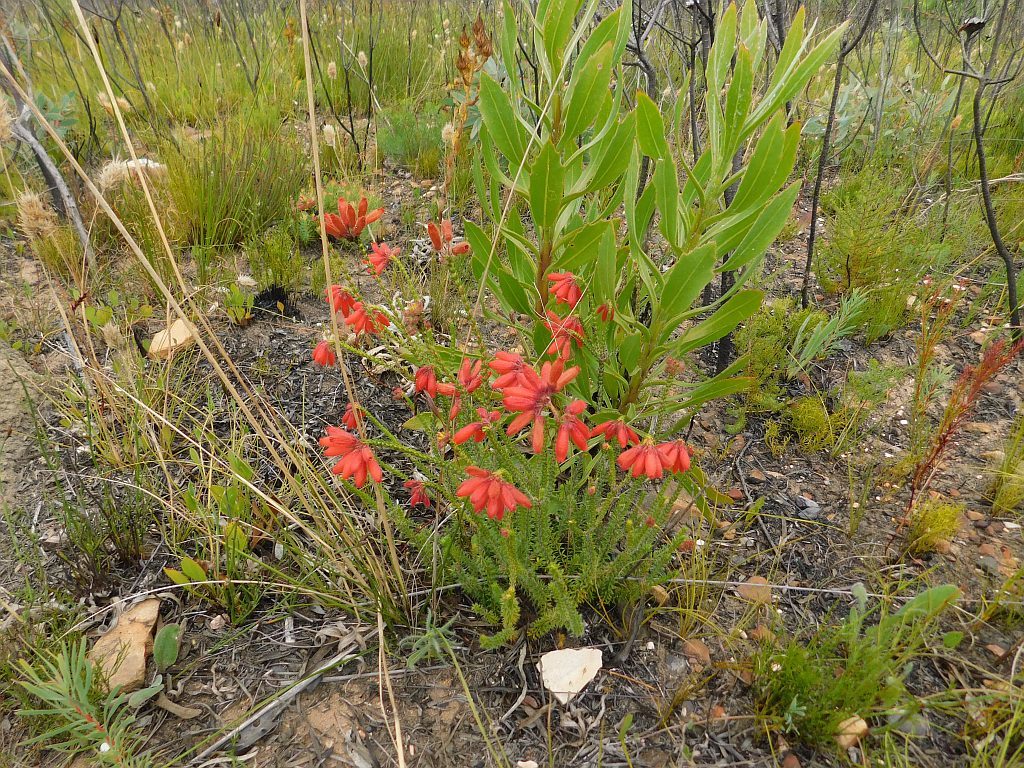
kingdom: Plantae
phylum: Tracheophyta
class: Magnoliopsida
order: Ericales
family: Ericaceae
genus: Erica
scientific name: Erica cerinthoides
